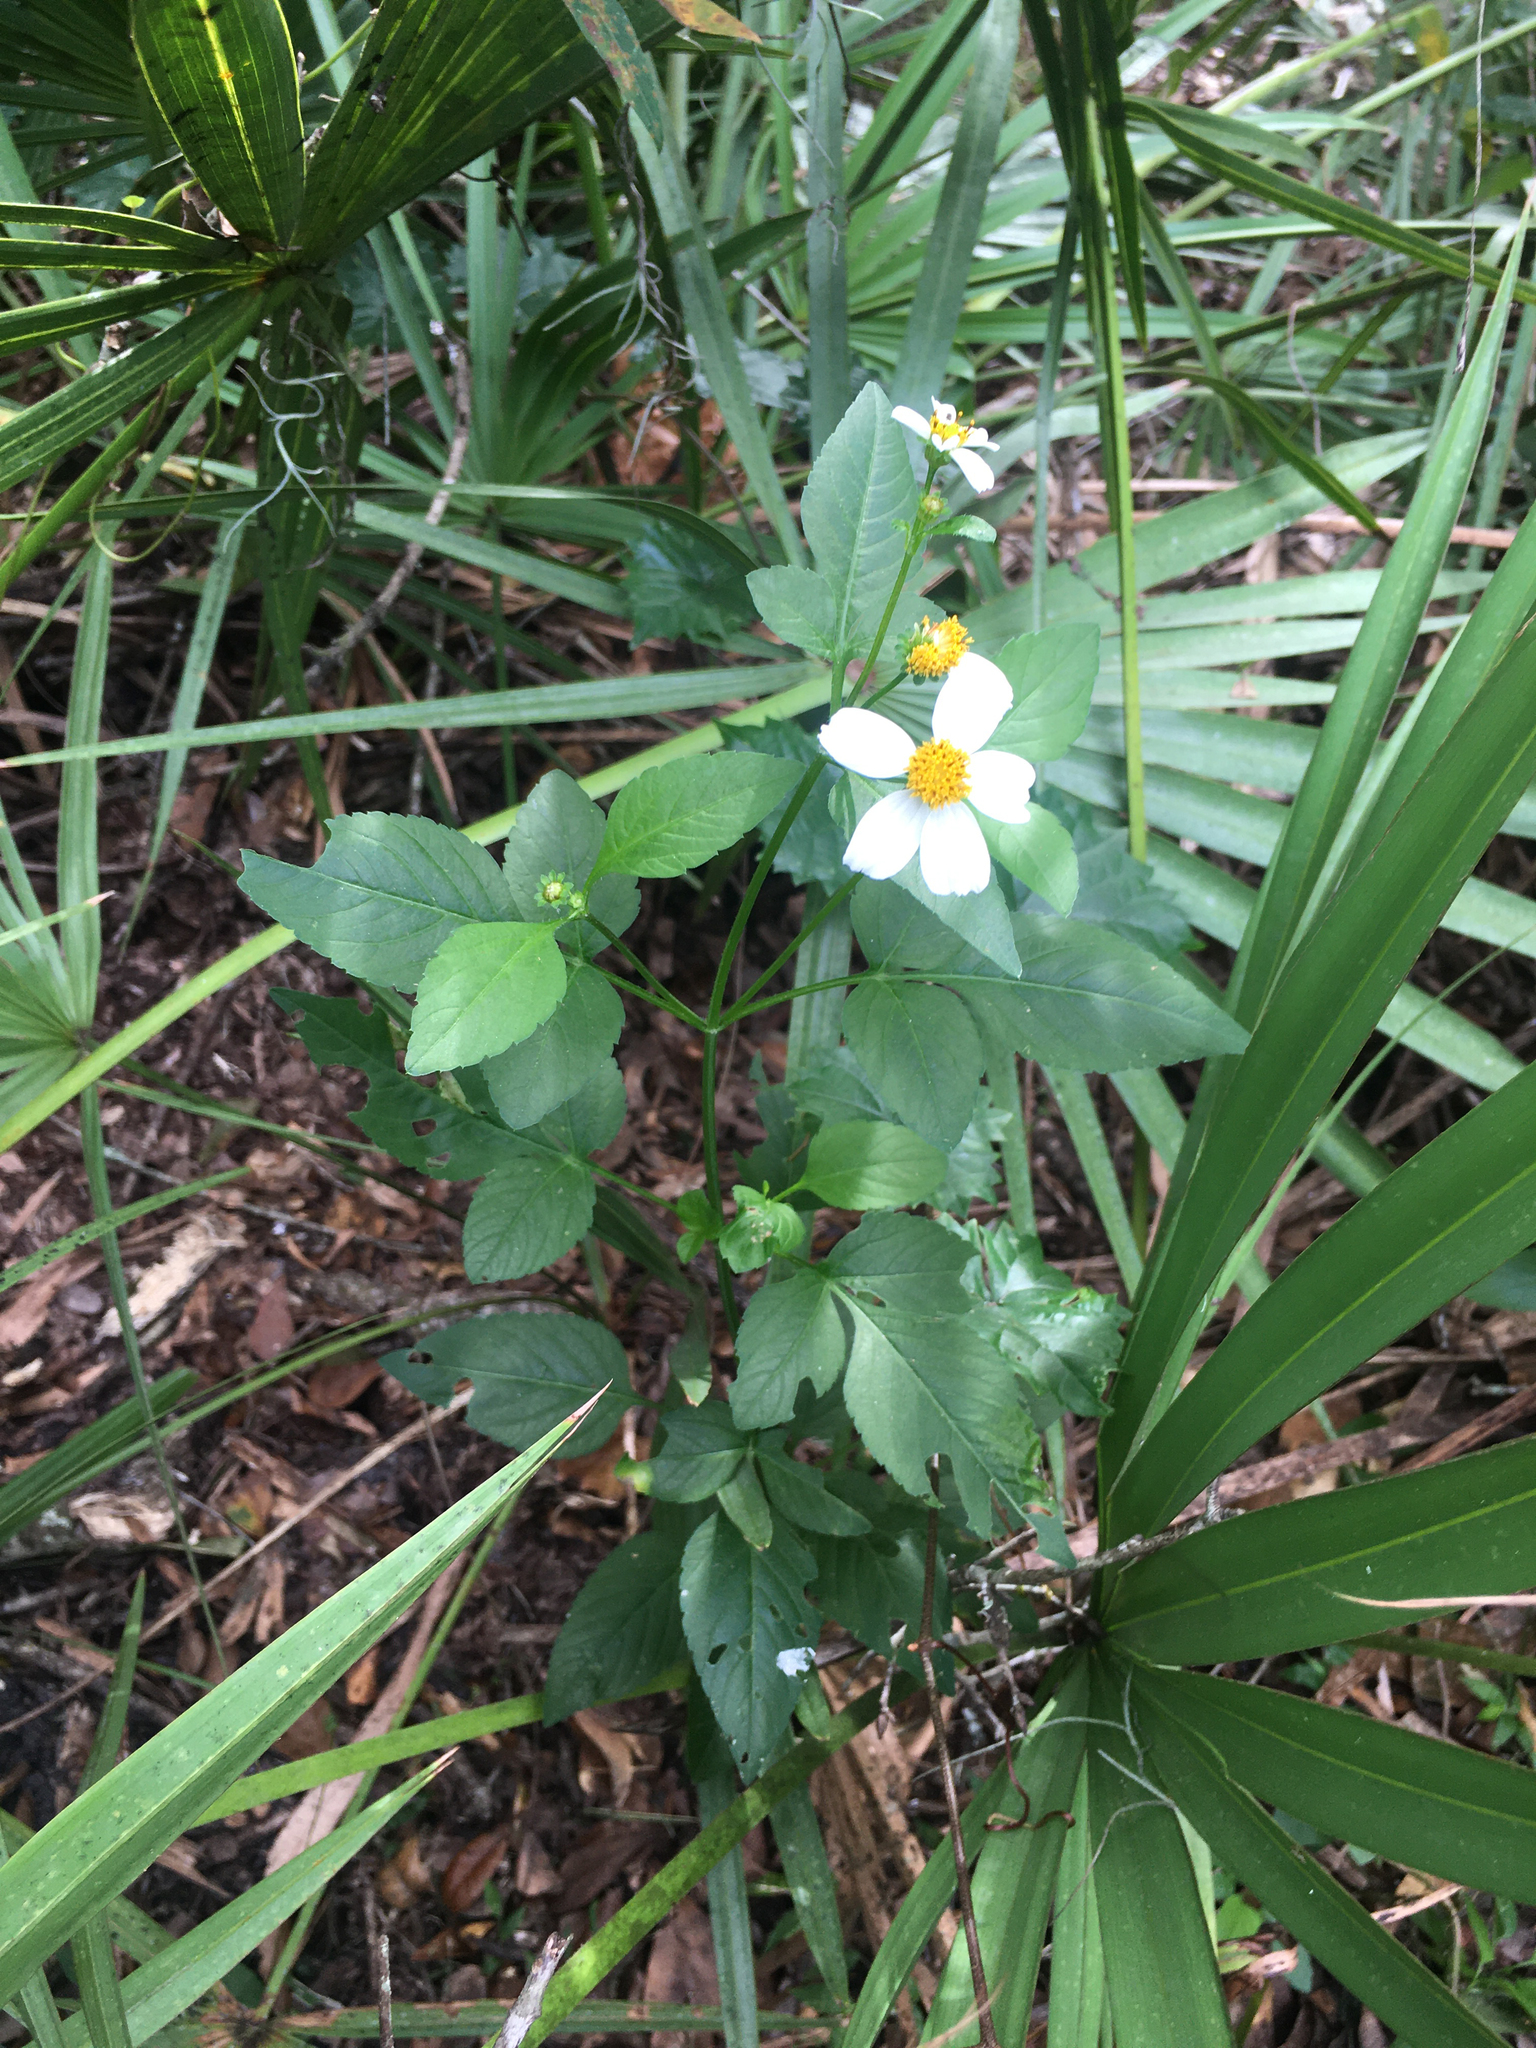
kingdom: Plantae
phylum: Tracheophyta
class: Magnoliopsida
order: Asterales
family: Asteraceae
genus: Bidens
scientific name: Bidens alba
